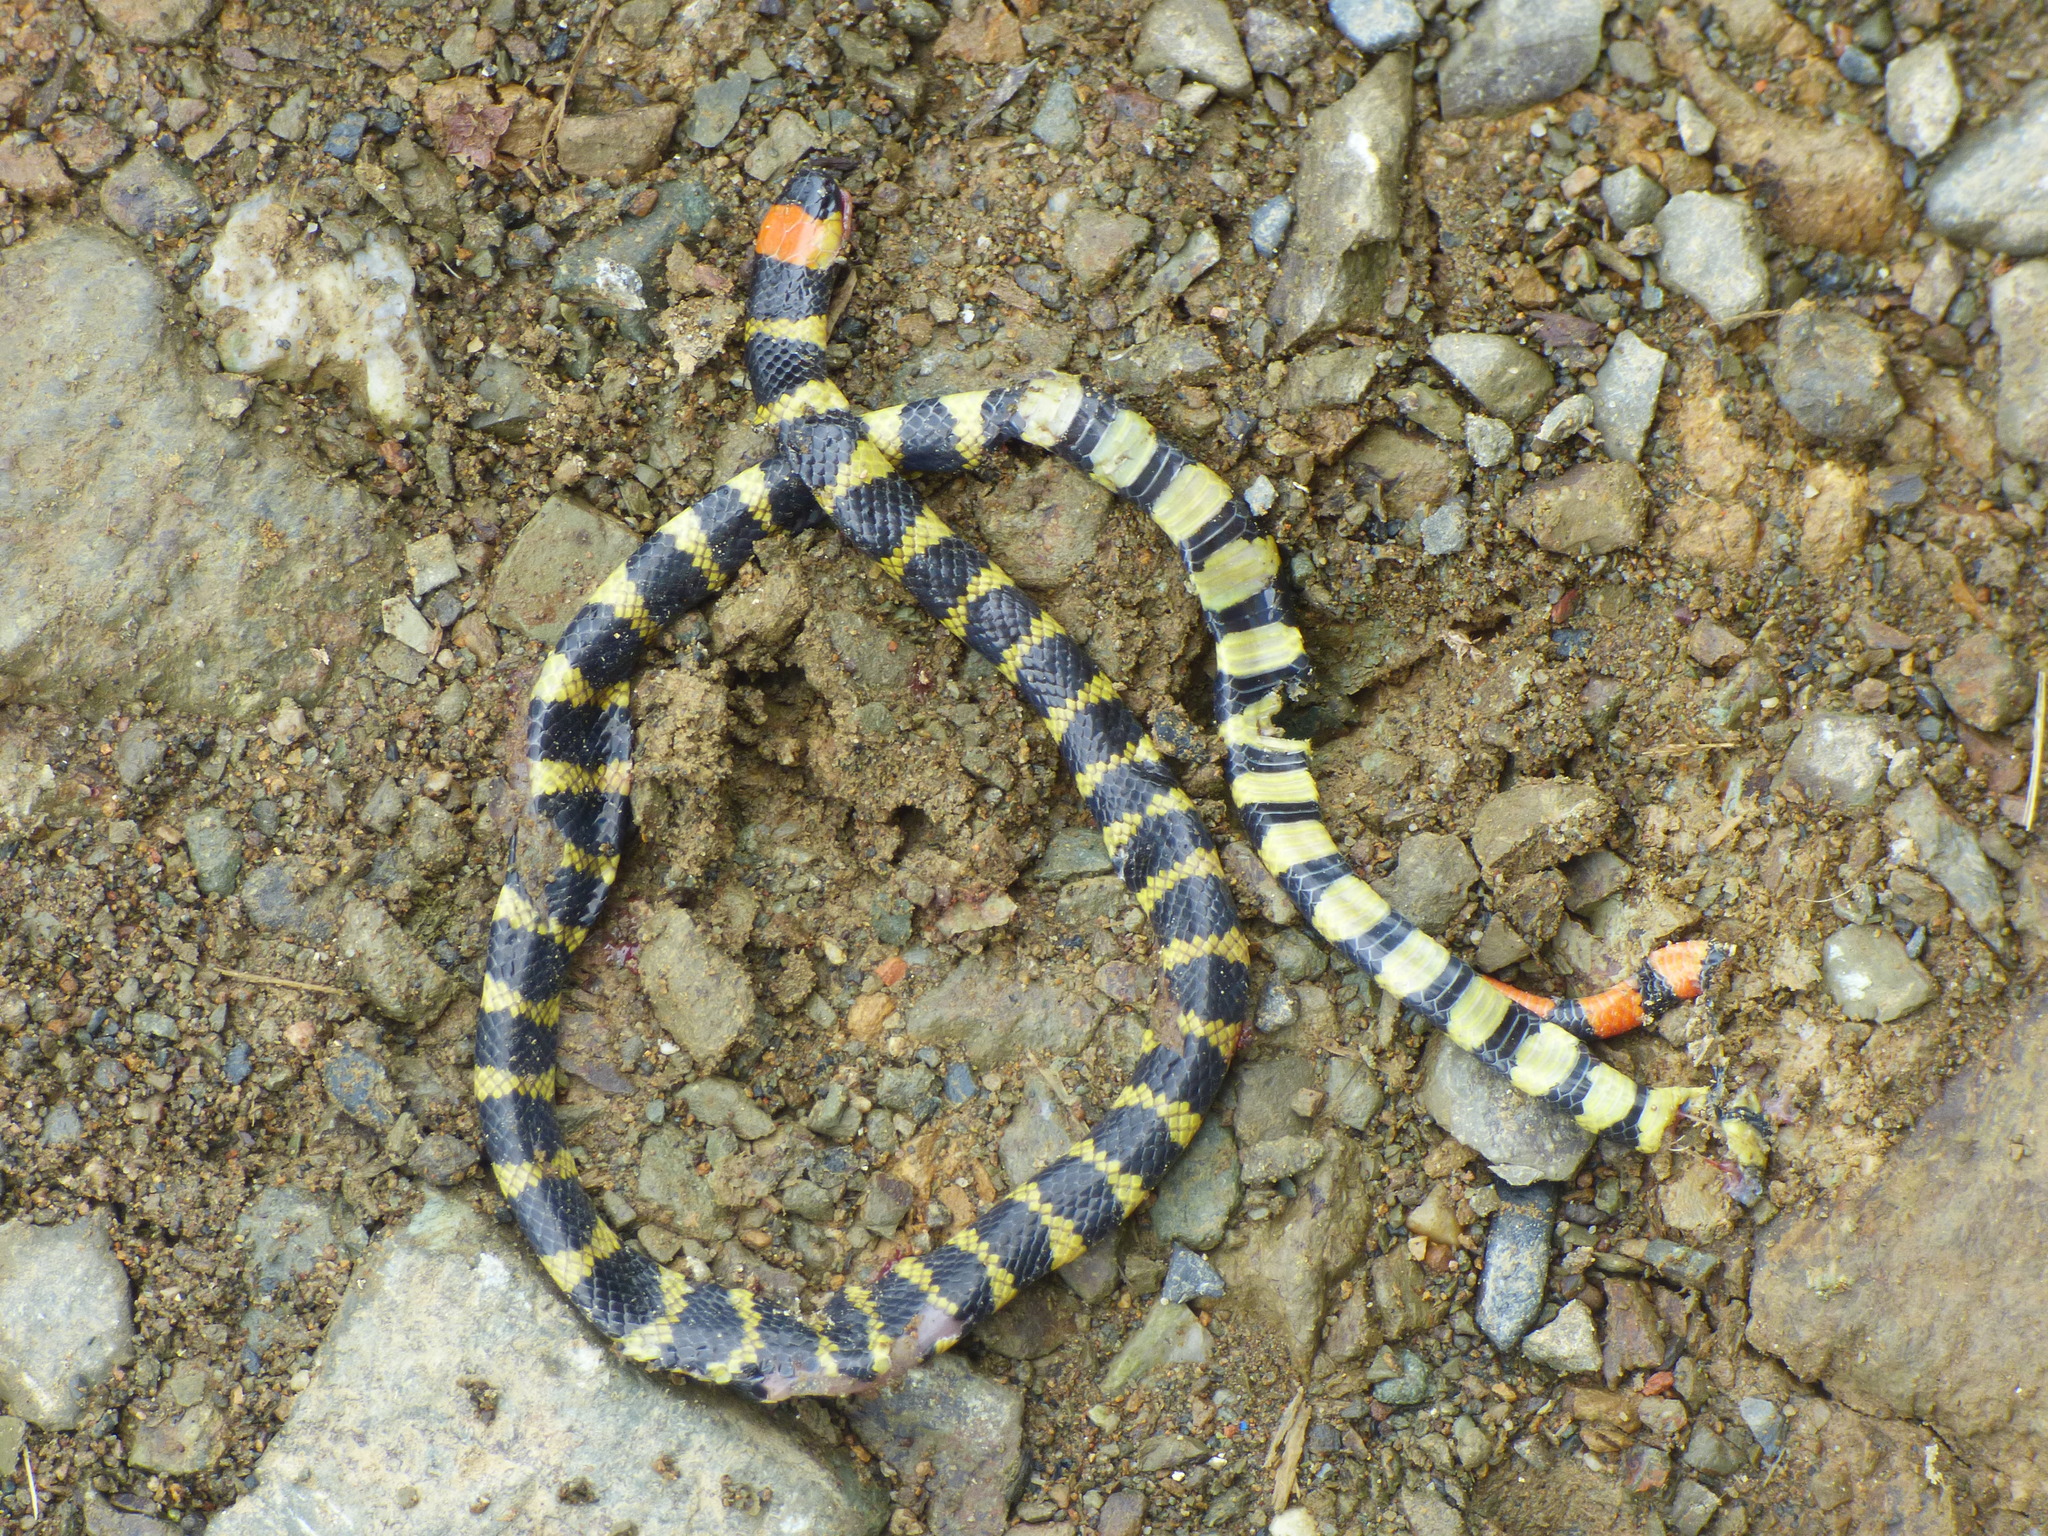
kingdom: Animalia
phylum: Chordata
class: Squamata
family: Elapidae
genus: Micrurus
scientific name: Micrurus mipartitus
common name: Redtail coral snake
